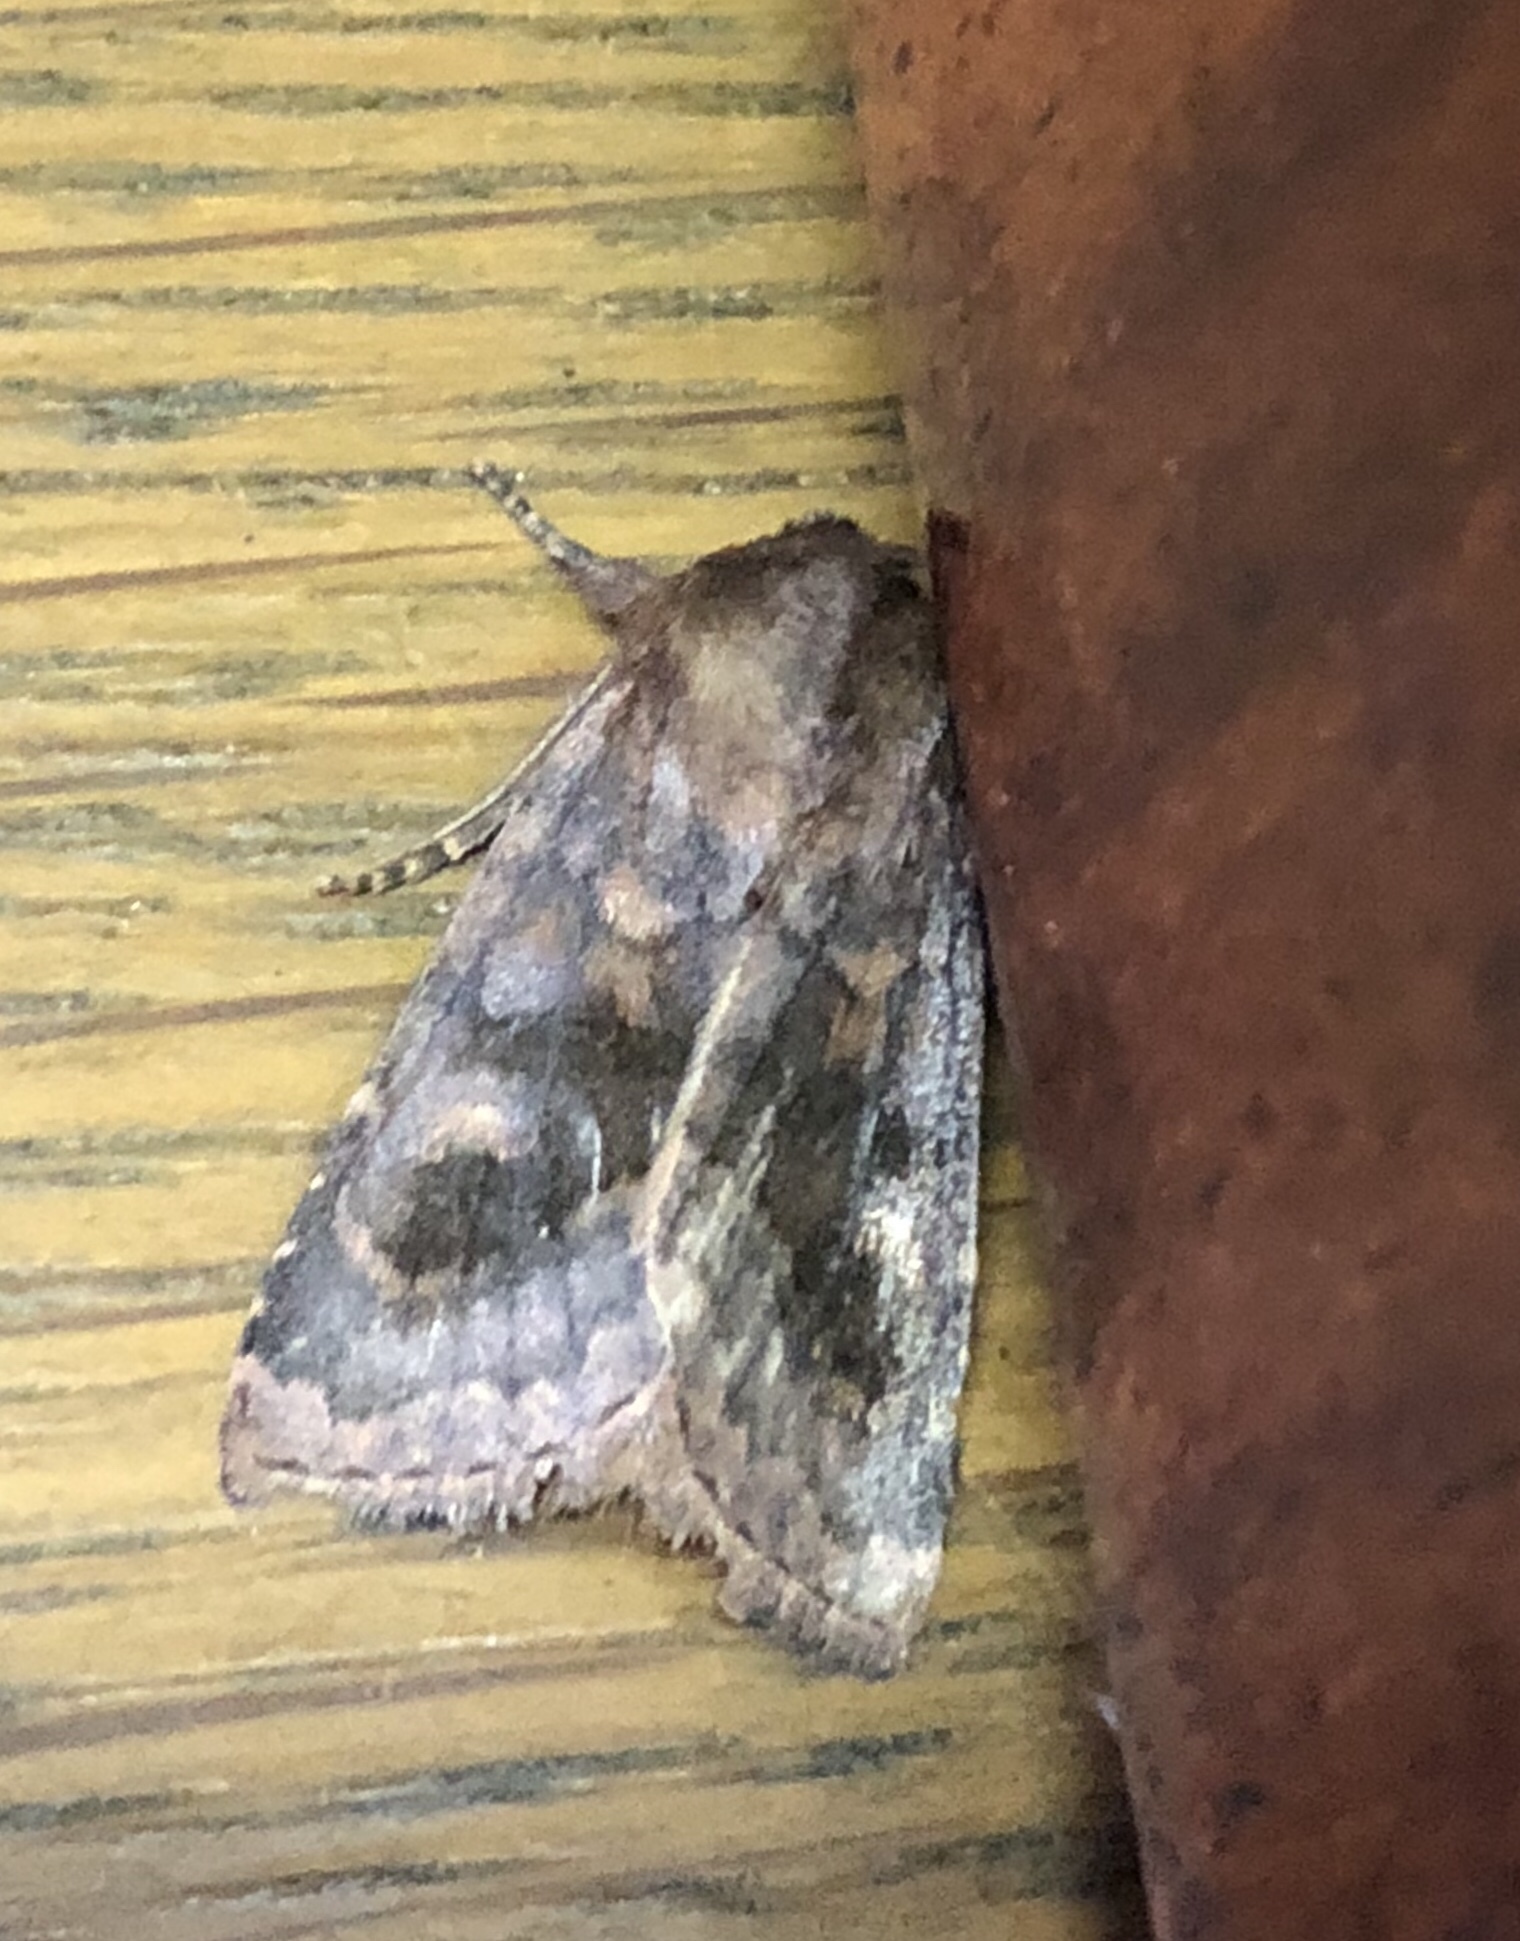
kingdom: Animalia
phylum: Arthropoda
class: Insecta
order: Lepidoptera
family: Noctuidae
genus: Nephelodes
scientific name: Nephelodes minians
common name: Bronzed cutworm
